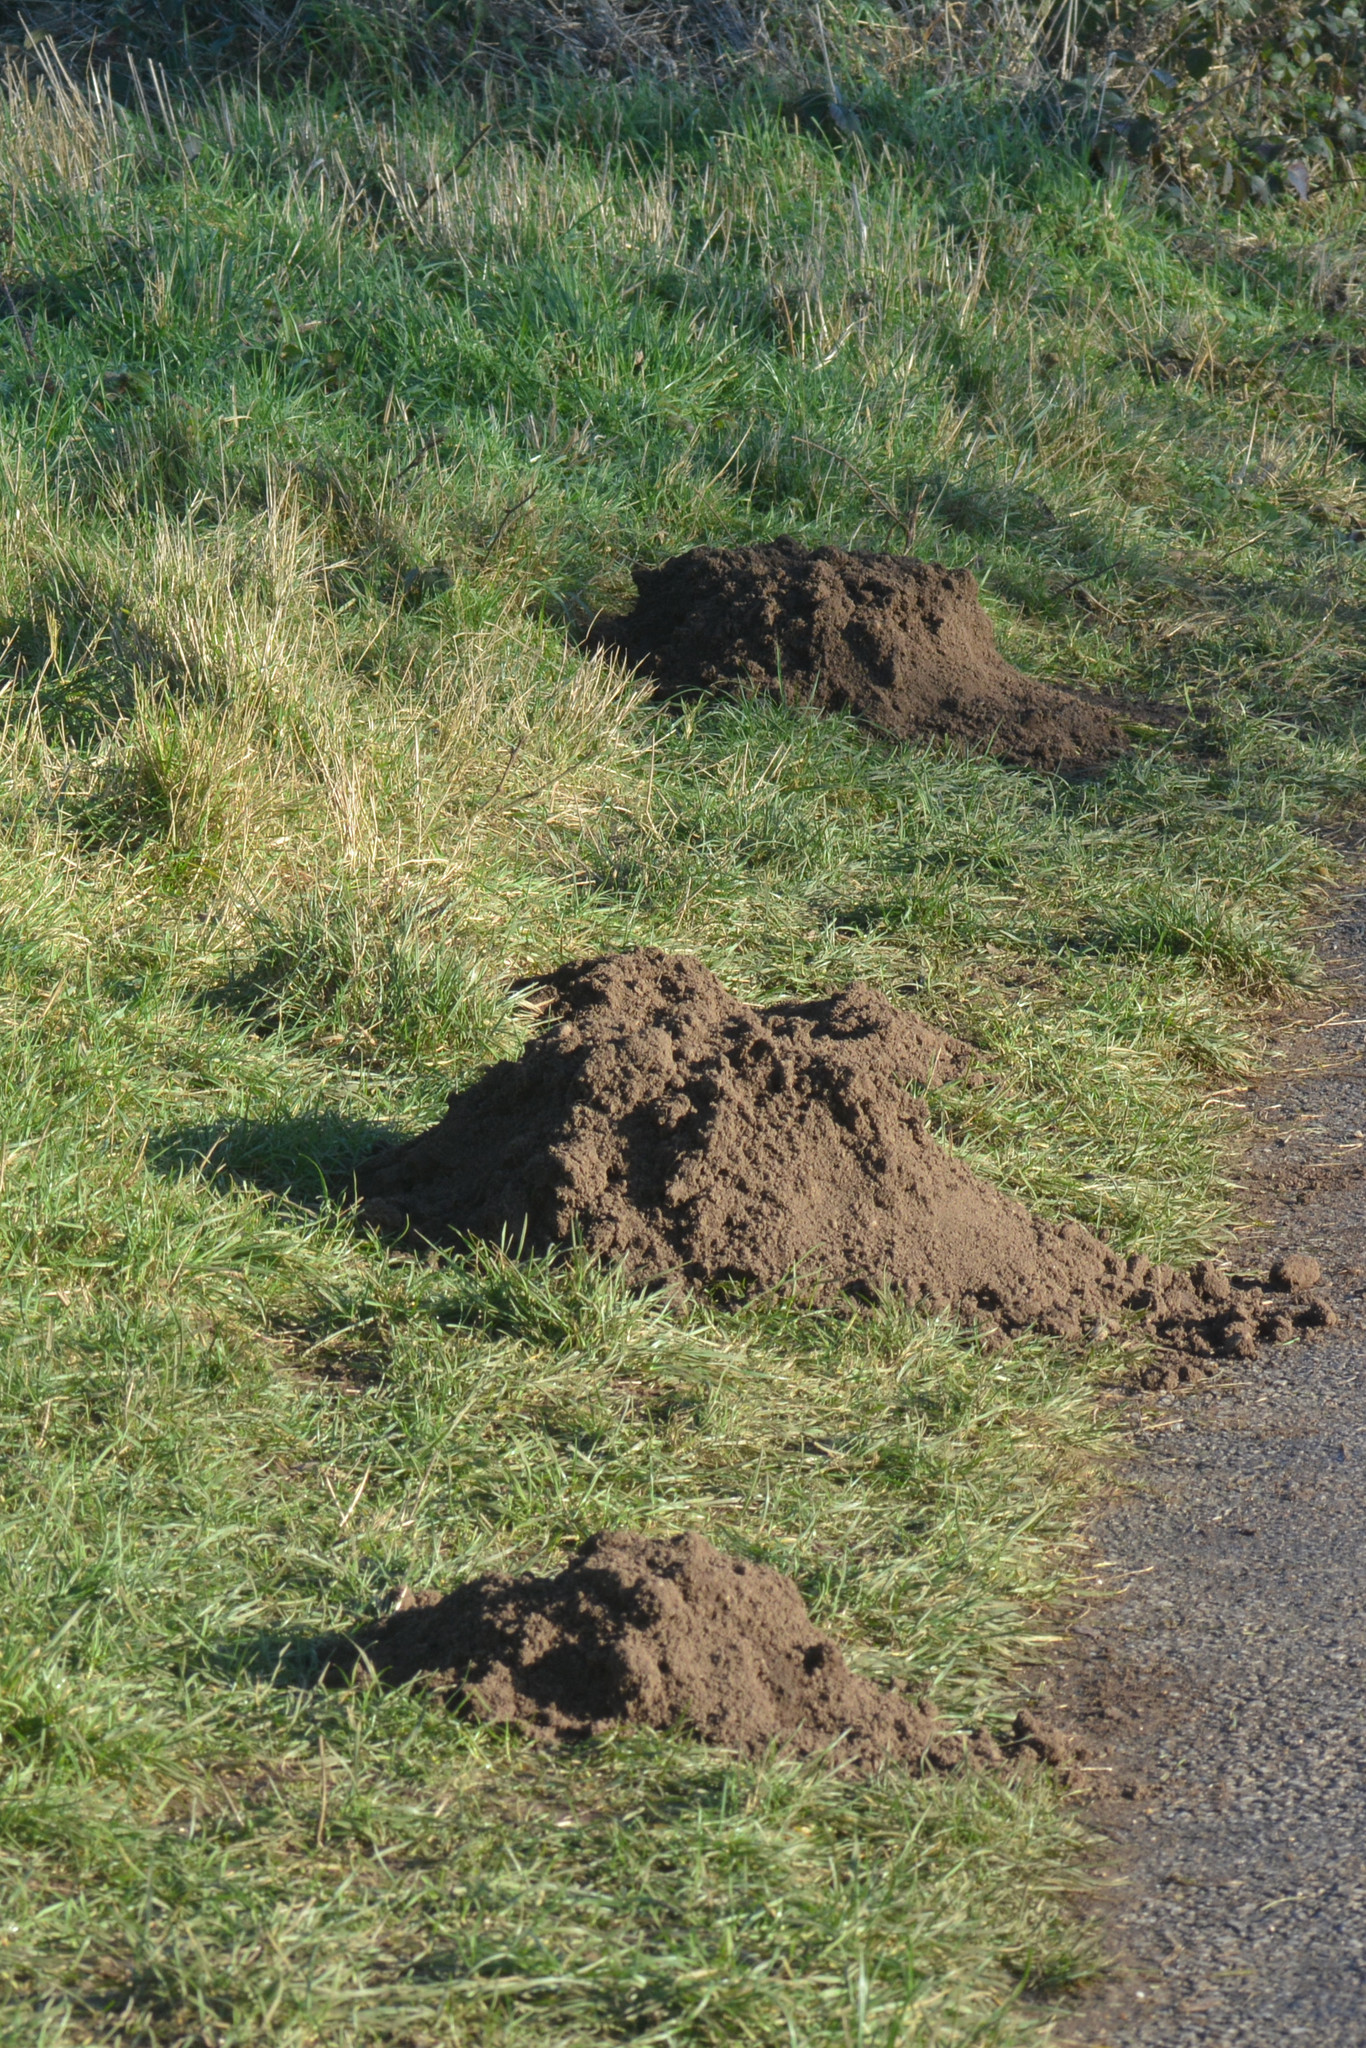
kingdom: Animalia
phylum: Chordata
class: Mammalia
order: Soricomorpha
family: Talpidae
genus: Talpa
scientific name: Talpa europaea
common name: European mole
